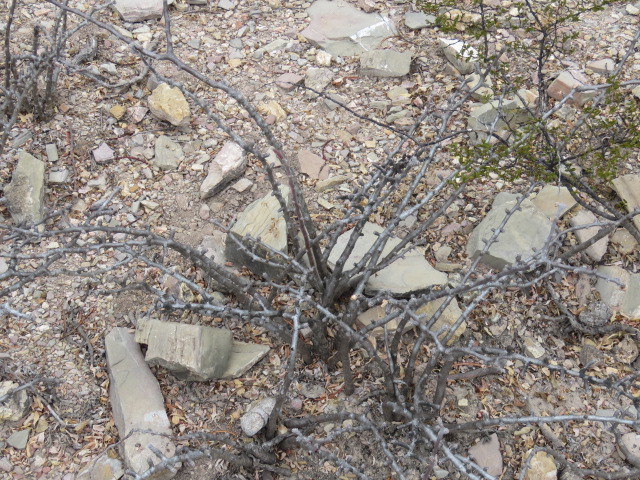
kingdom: Plantae
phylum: Tracheophyta
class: Magnoliopsida
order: Malpighiales
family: Euphorbiaceae
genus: Jatropha
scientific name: Jatropha dioica
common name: Leatherstem
